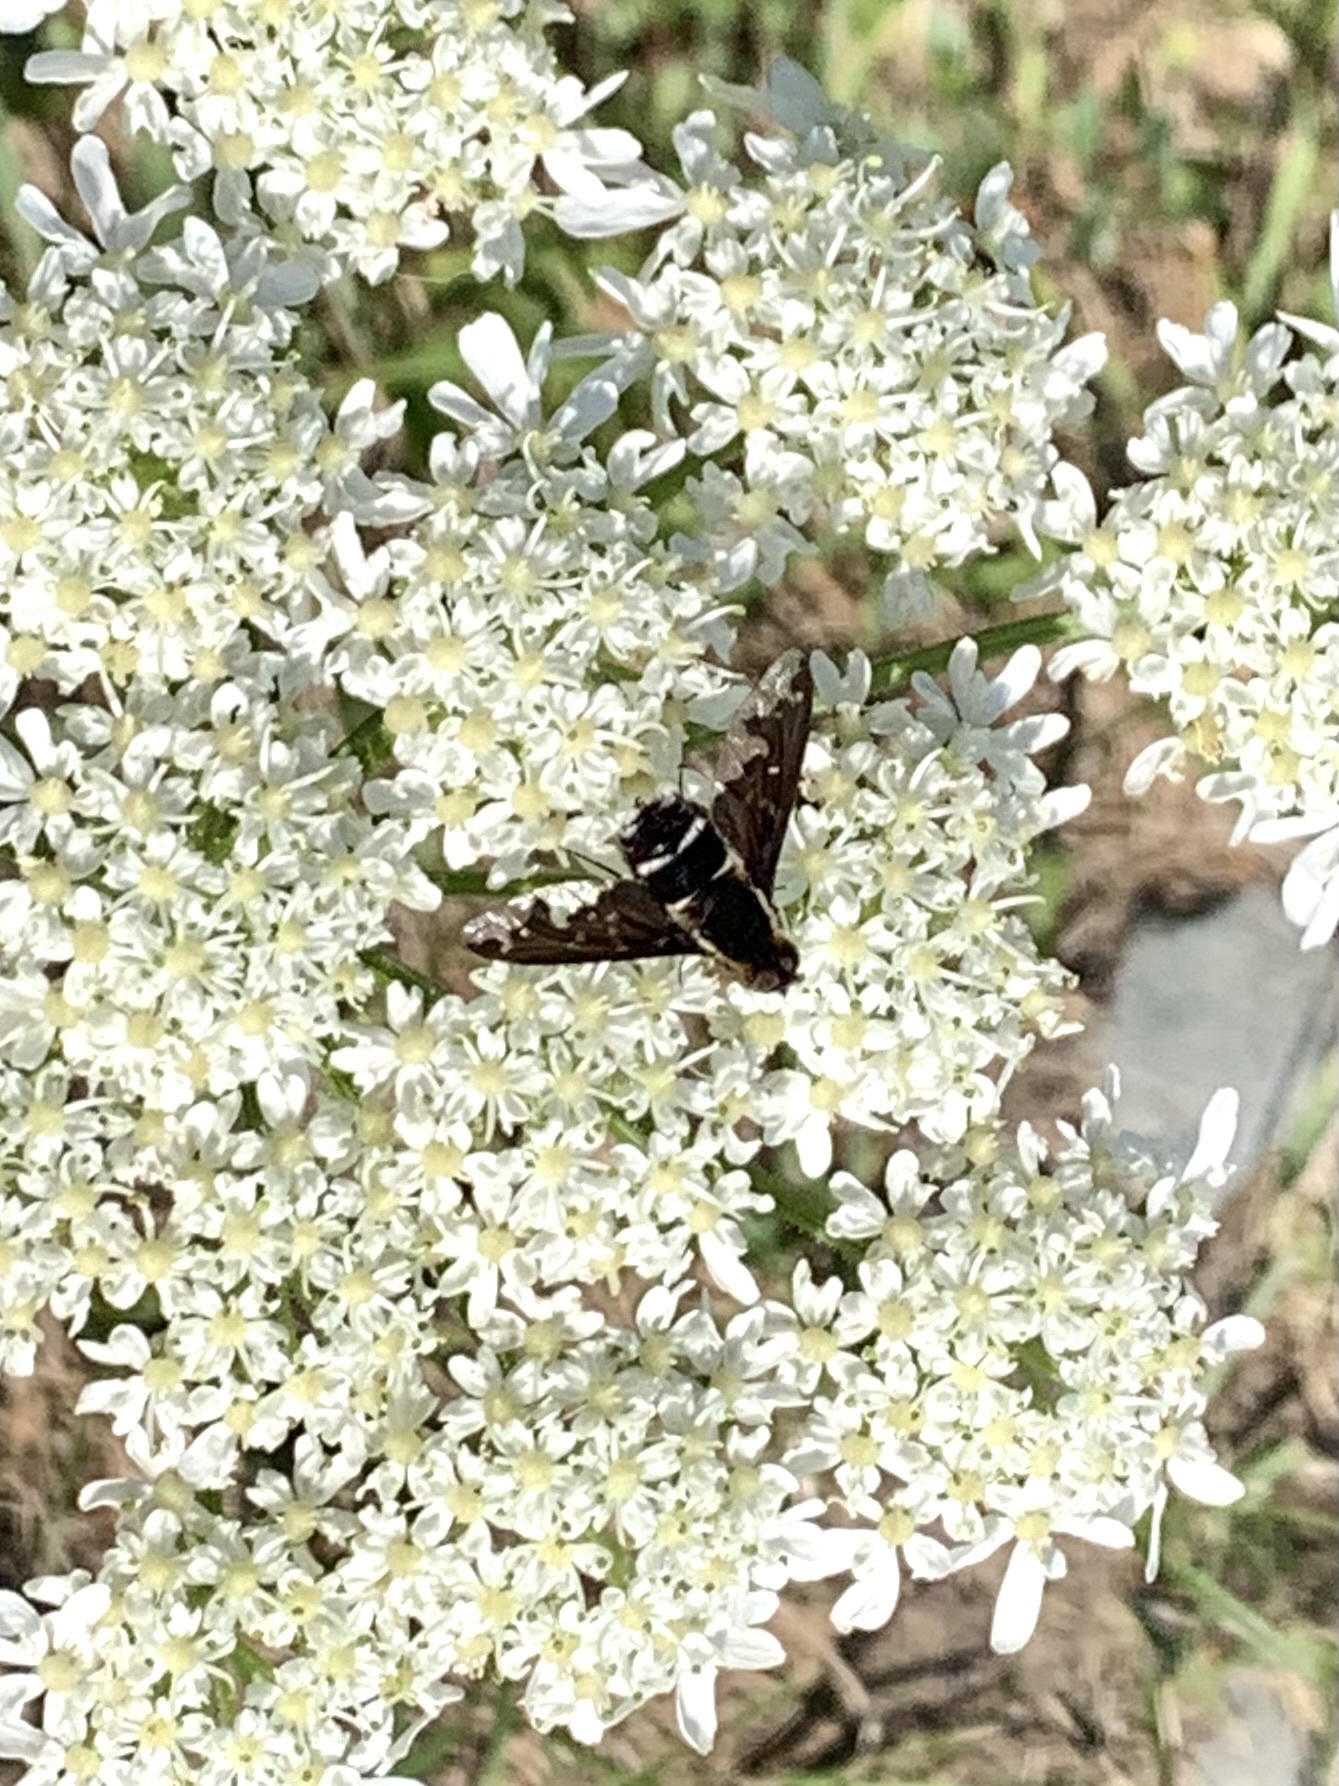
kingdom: Animalia
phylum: Arthropoda
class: Insecta
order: Diptera
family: Bombyliidae
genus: Hemipenthes
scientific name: Hemipenthes maura
